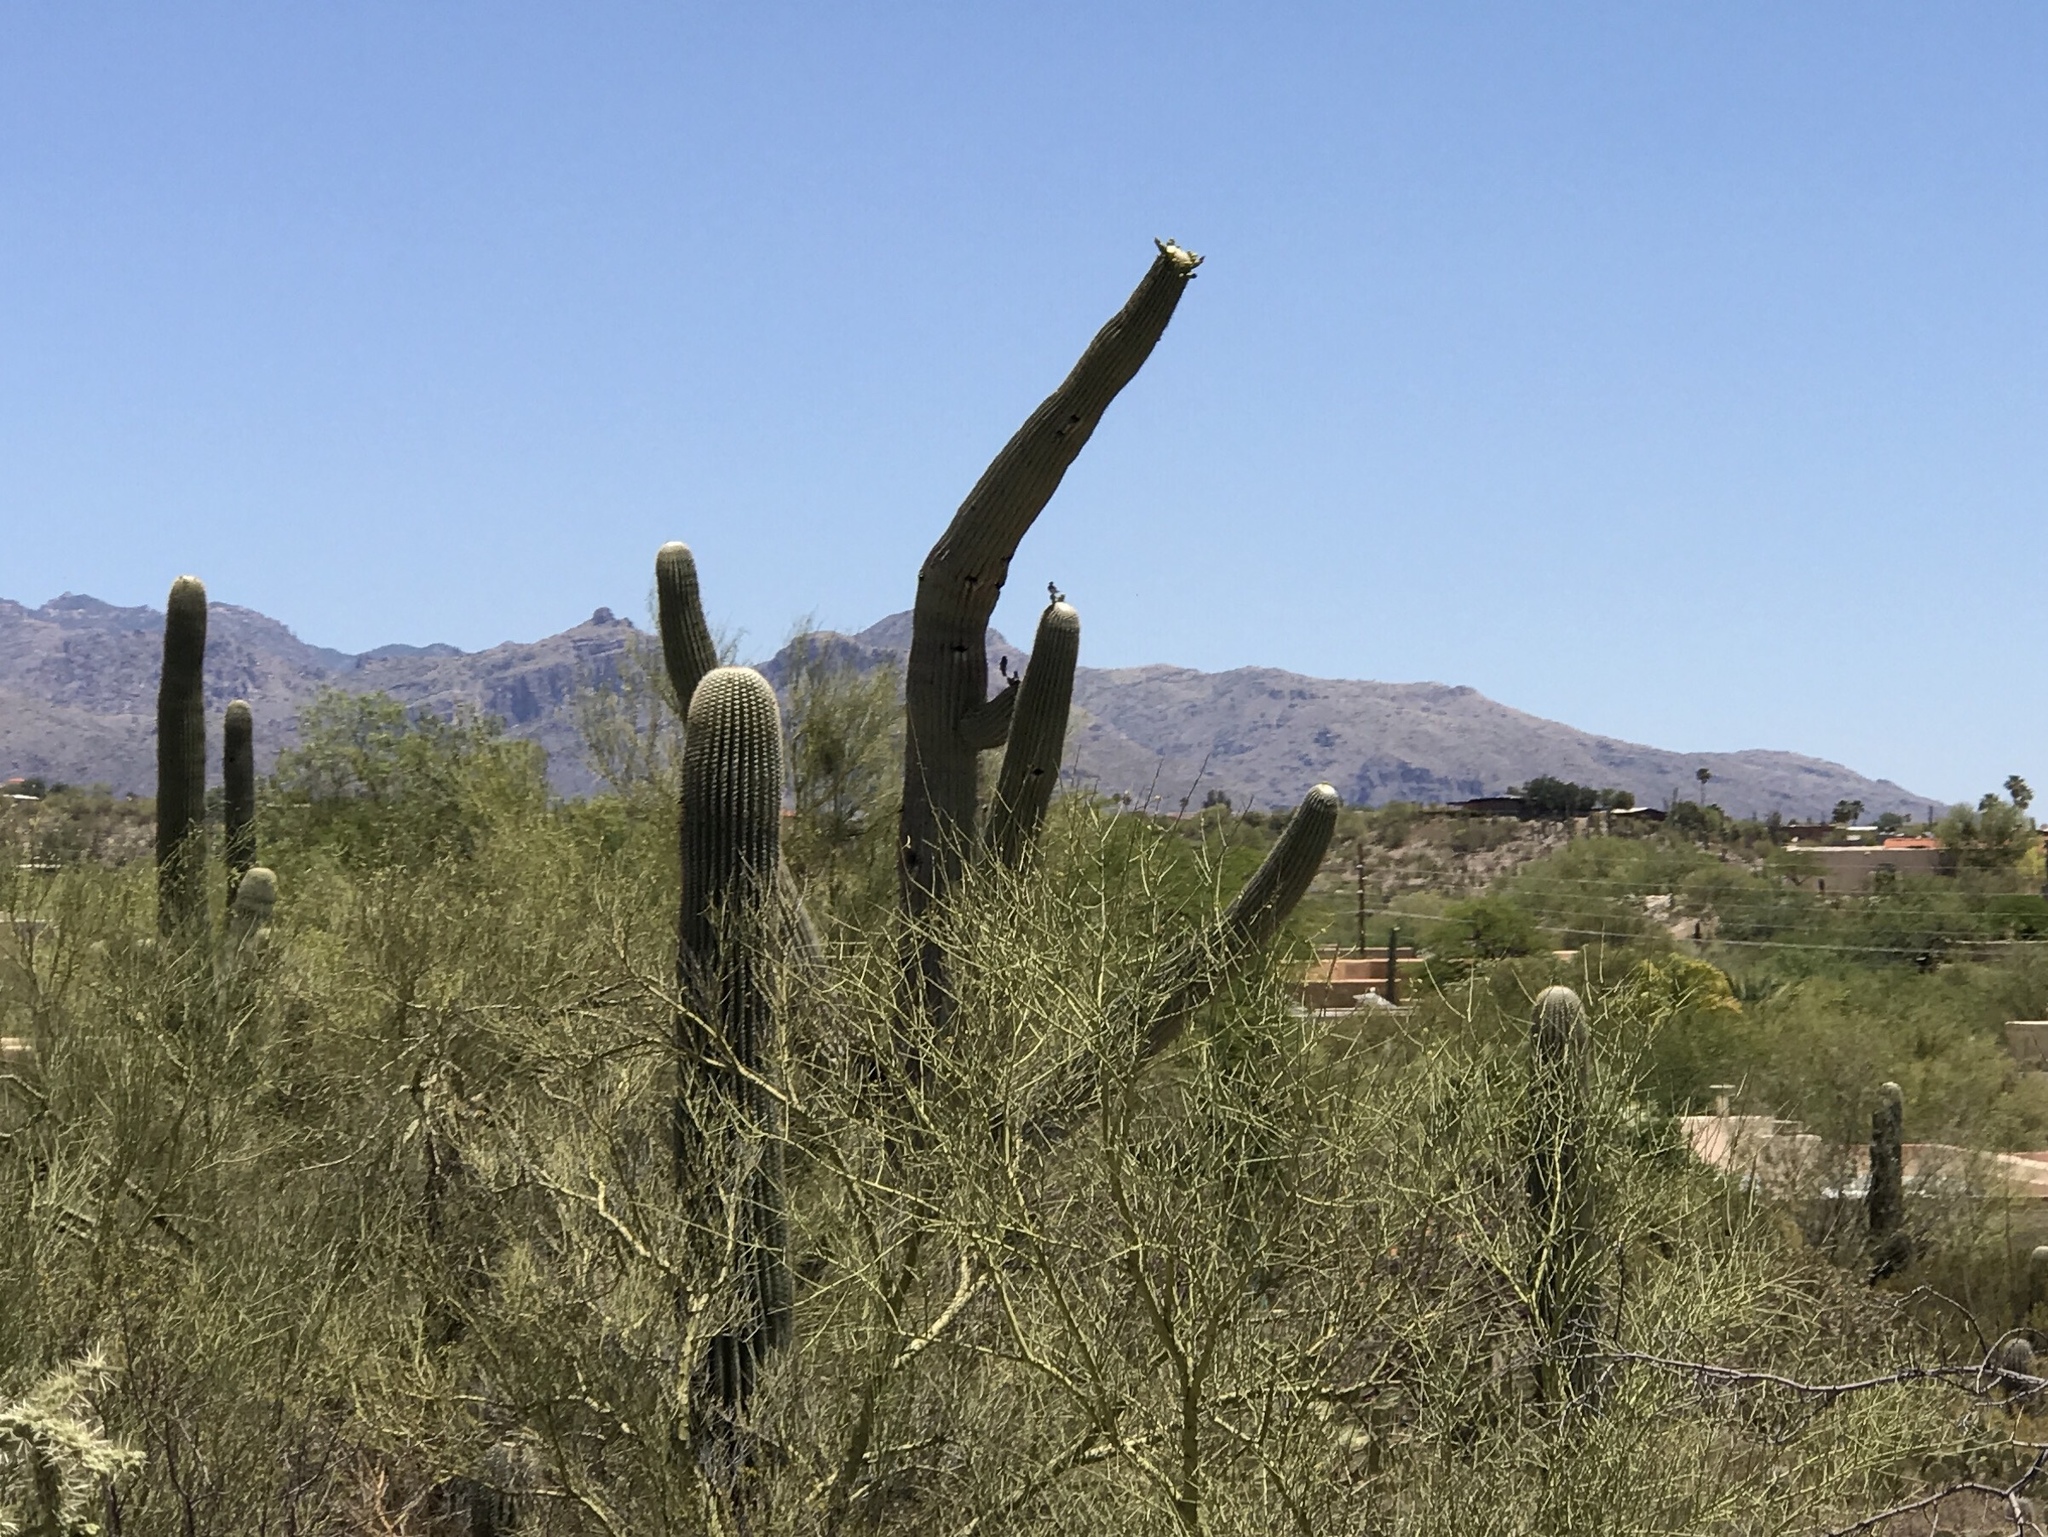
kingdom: Plantae
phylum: Tracheophyta
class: Magnoliopsida
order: Caryophyllales
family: Cactaceae
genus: Carnegiea
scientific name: Carnegiea gigantea
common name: Saguaro
